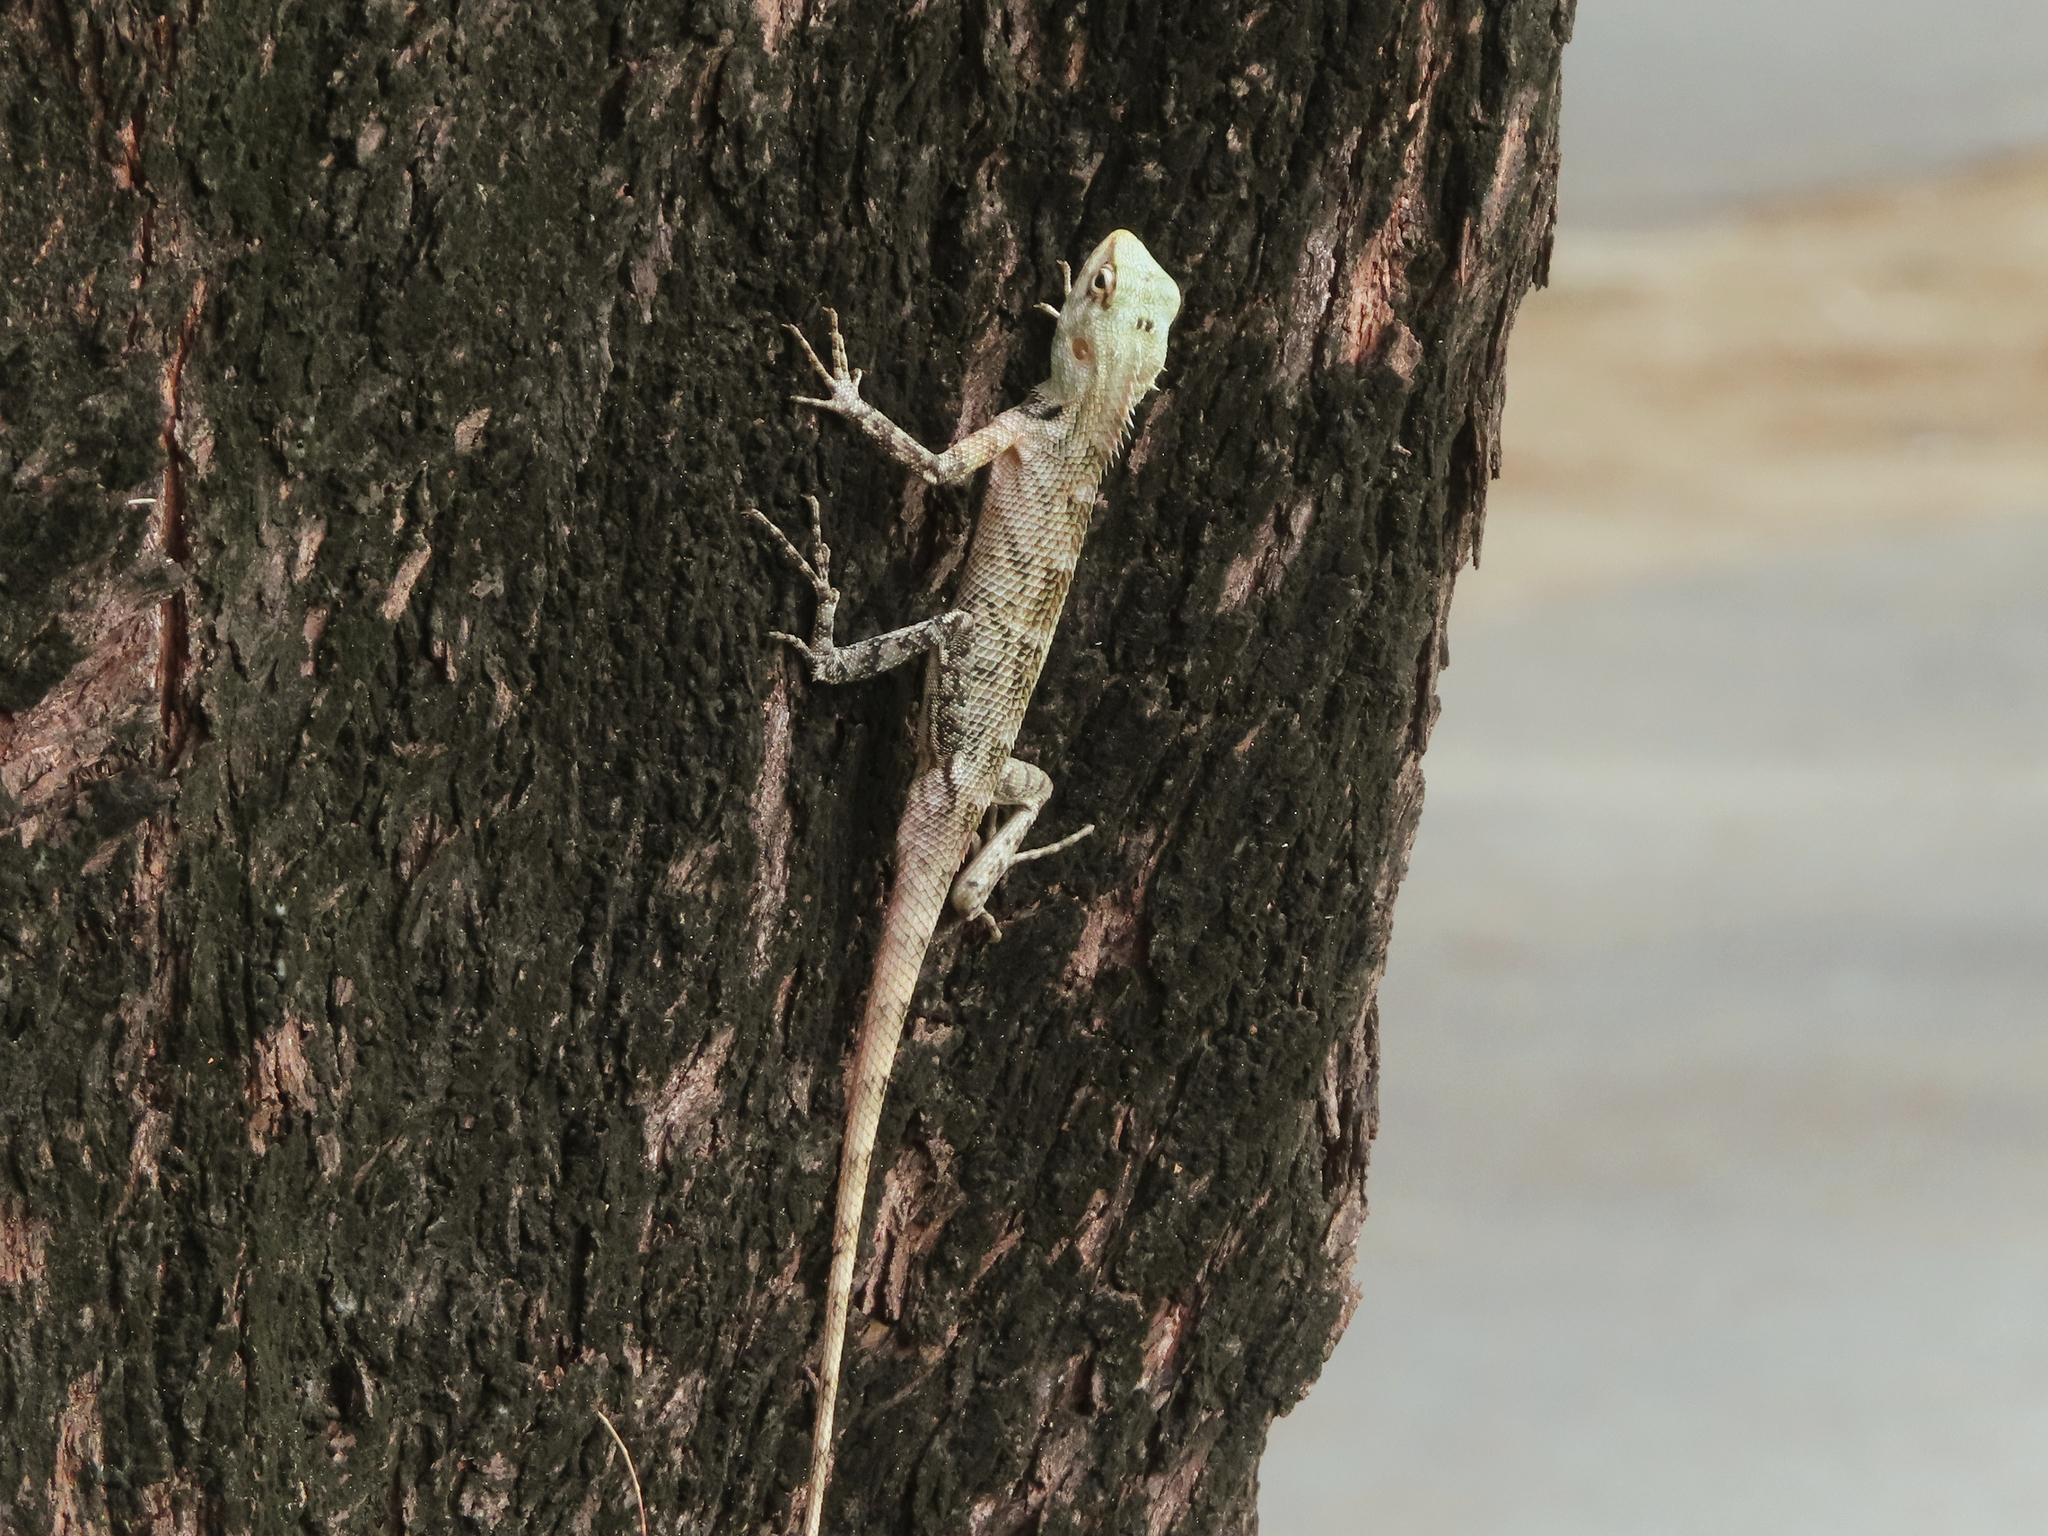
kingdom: Animalia
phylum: Chordata
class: Squamata
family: Agamidae
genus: Calotes
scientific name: Calotes versicolor
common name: Oriental garden lizard
